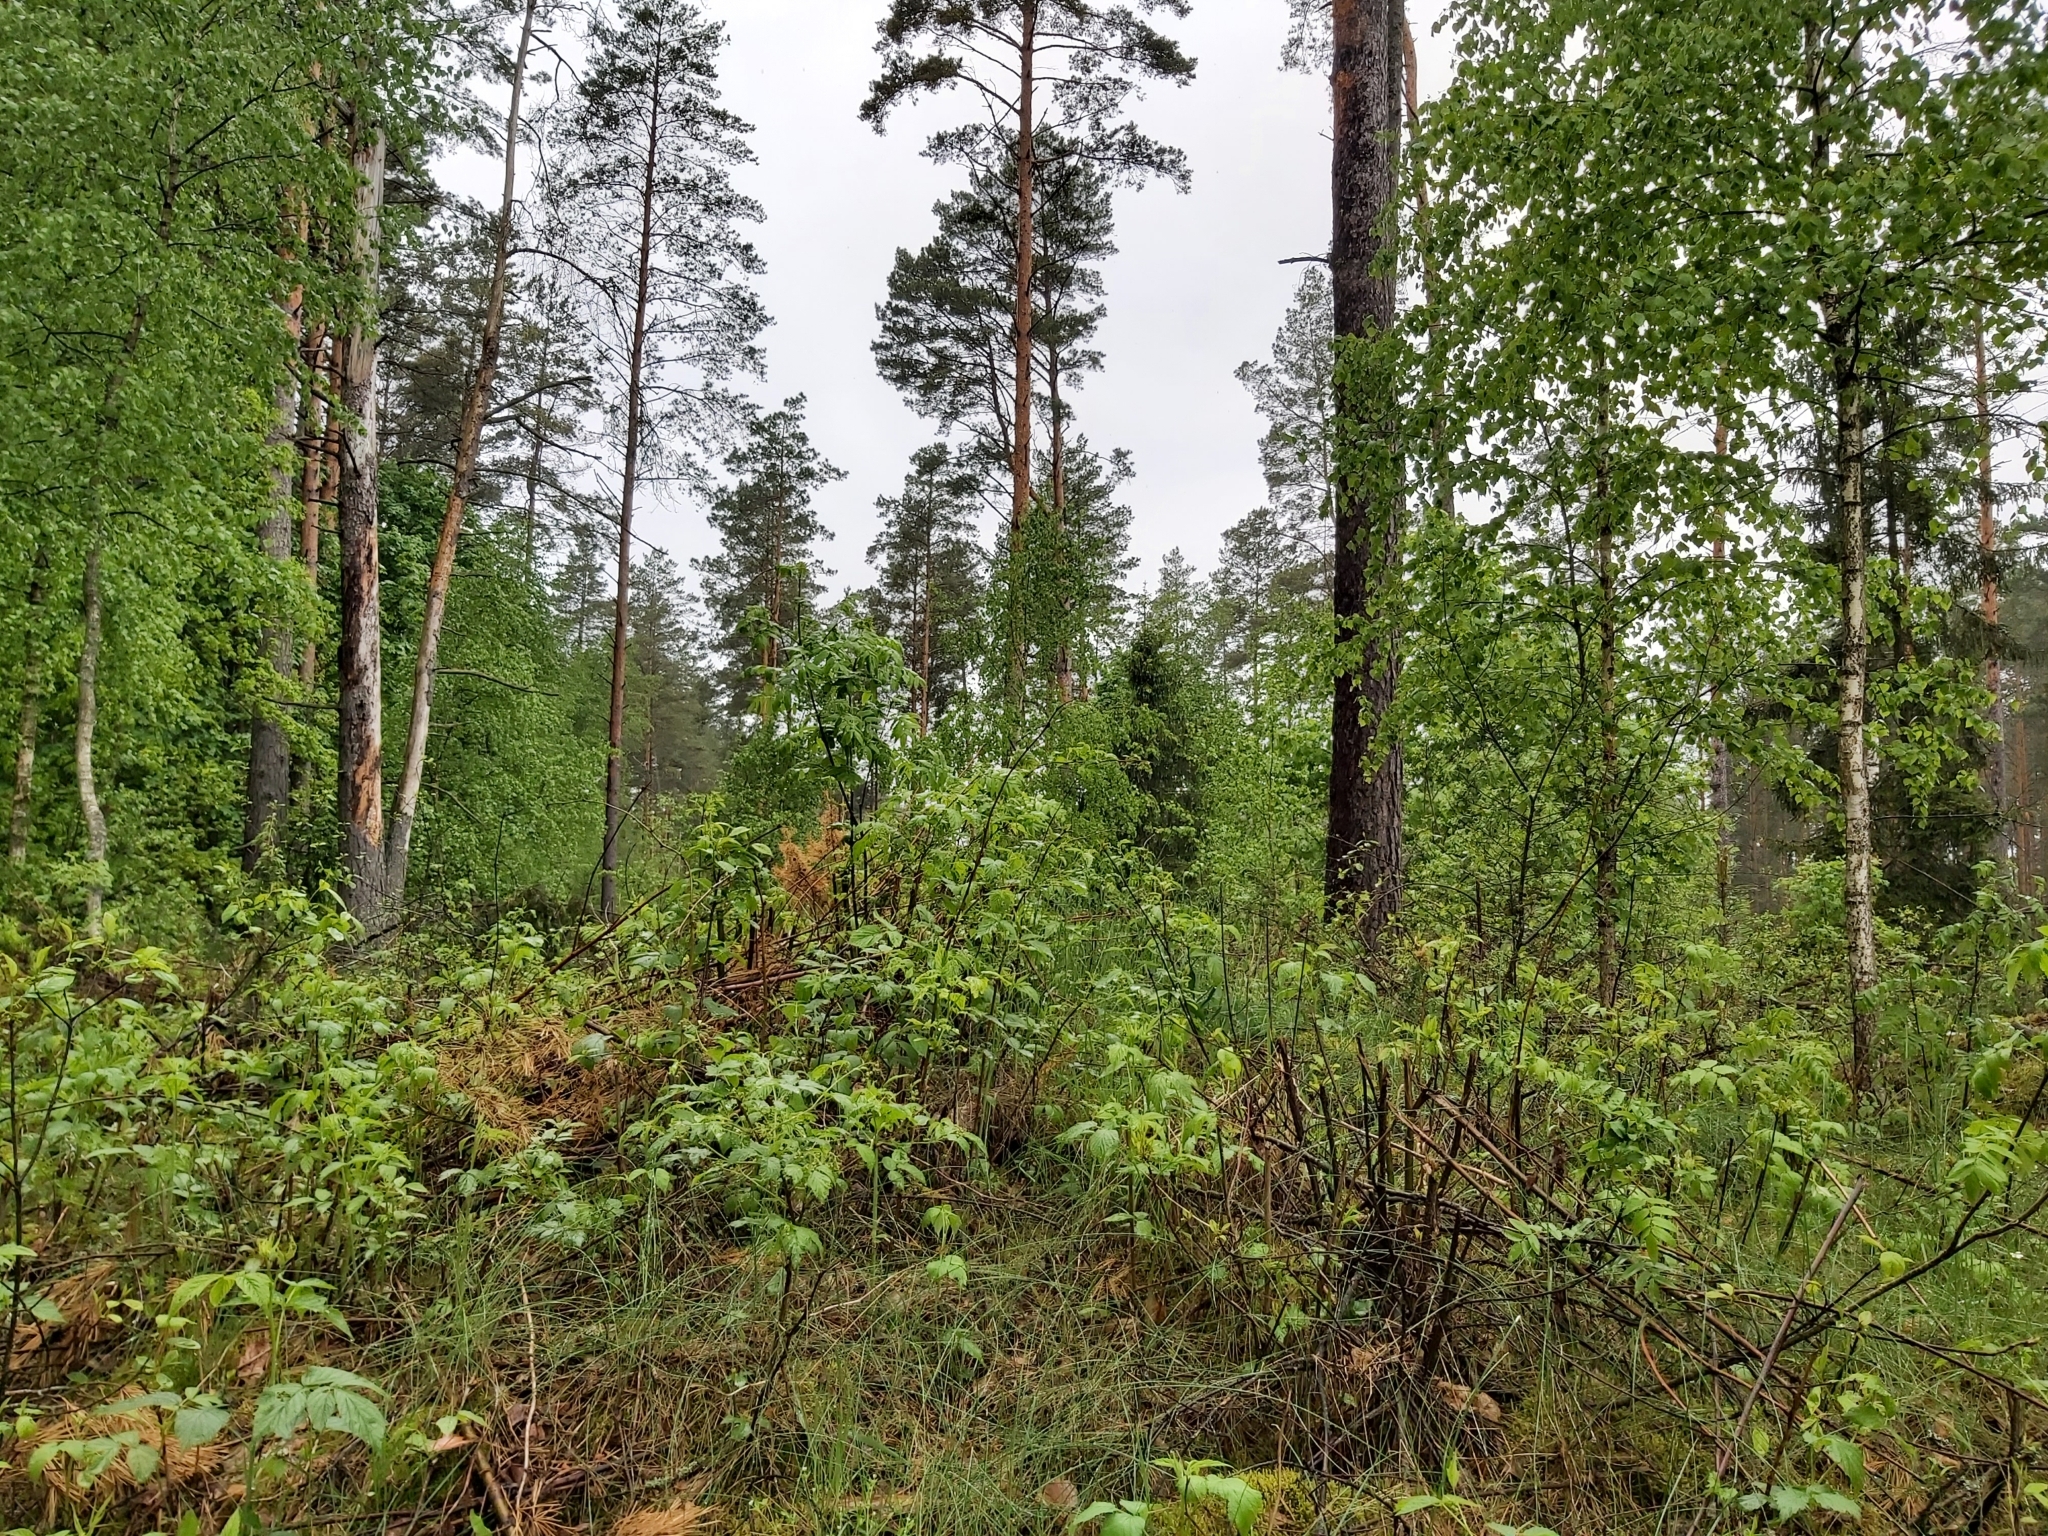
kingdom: Animalia
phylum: Chordata
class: Aves
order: Cuculiformes
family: Cuculidae
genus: Cuculus
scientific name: Cuculus canorus
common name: Common cuckoo
